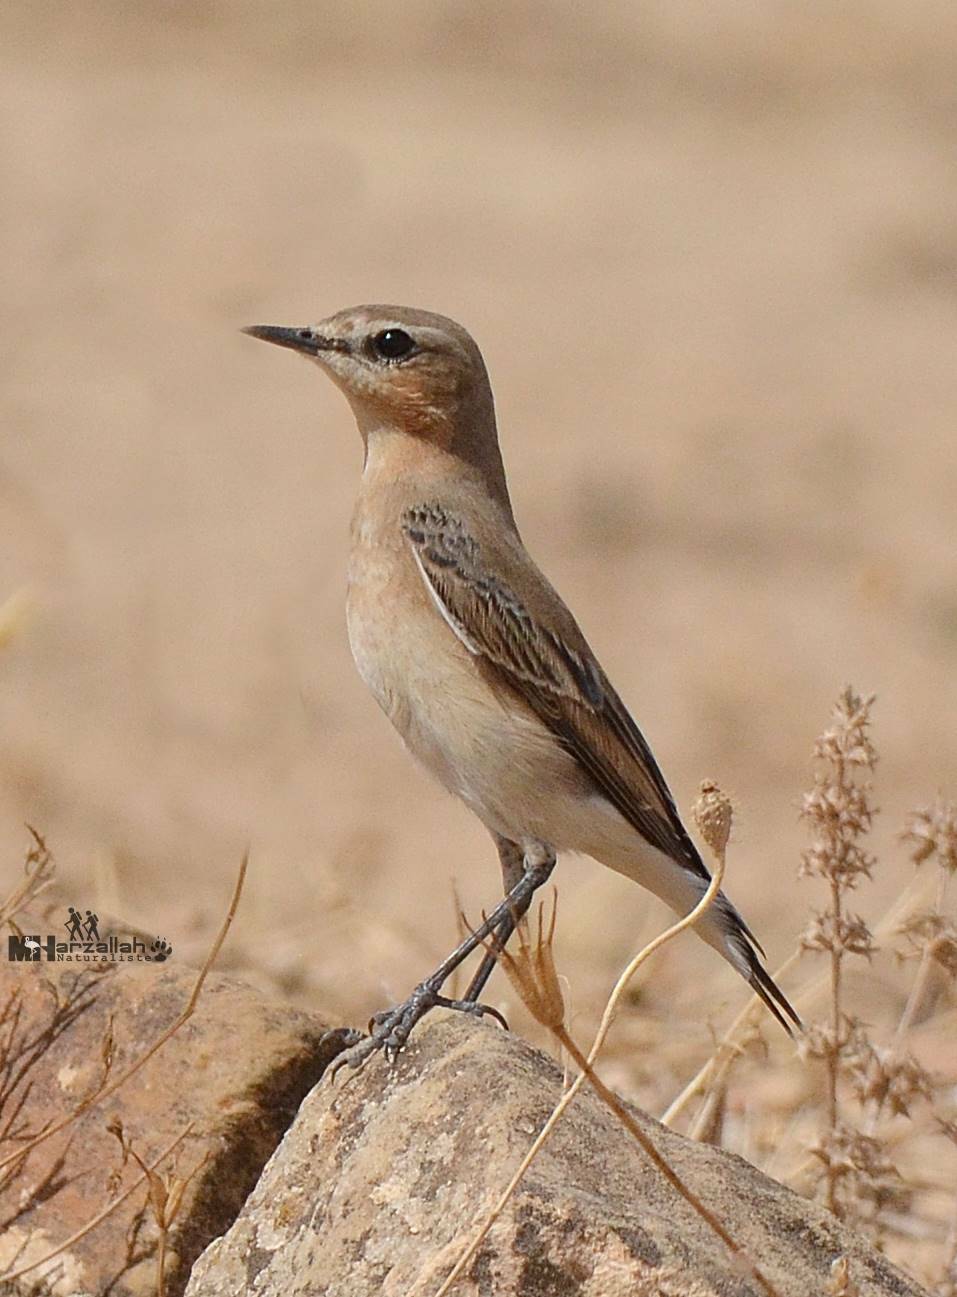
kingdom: Animalia
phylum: Chordata
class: Aves
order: Passeriformes
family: Muscicapidae
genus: Oenanthe
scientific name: Oenanthe oenanthe
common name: Northern wheatear
